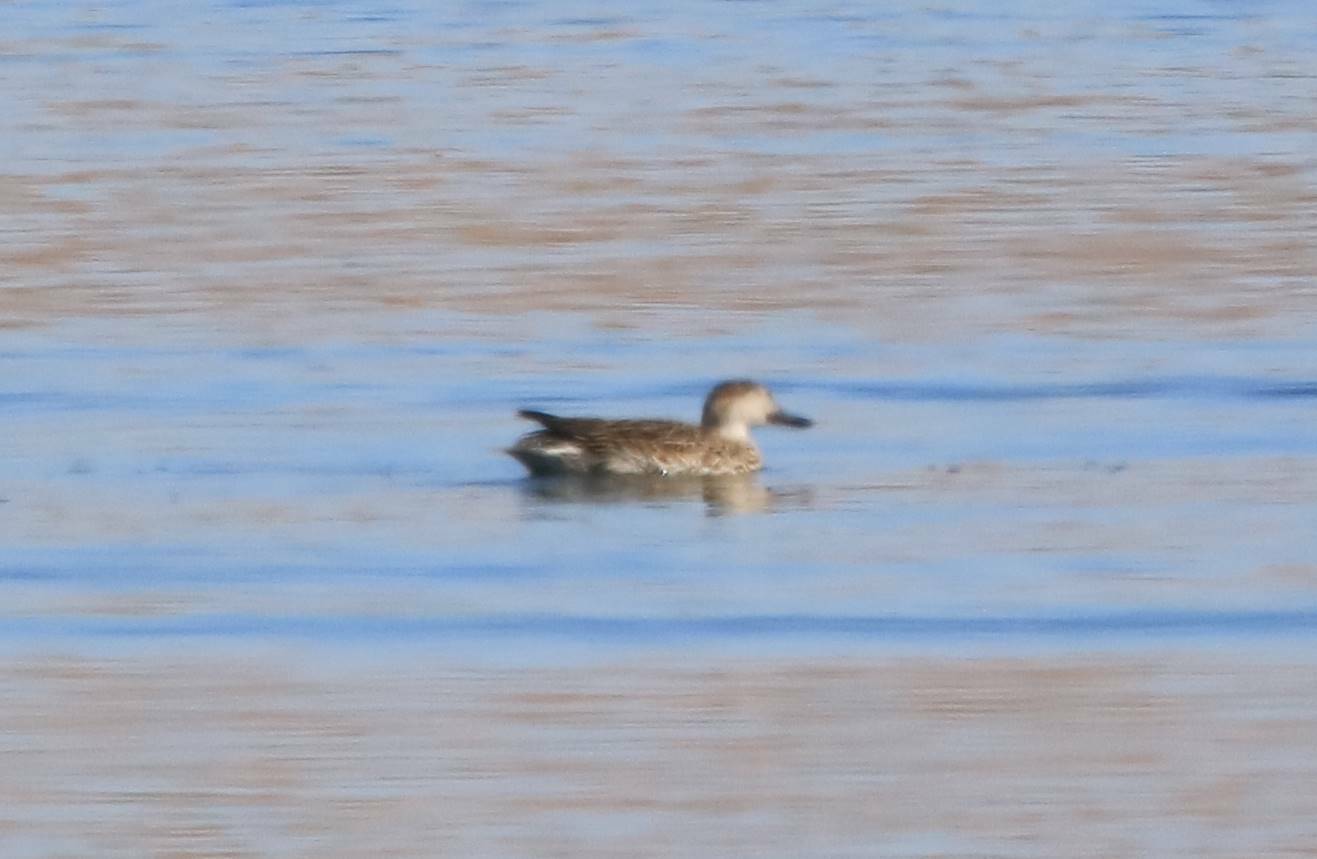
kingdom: Animalia
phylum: Chordata
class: Aves
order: Anseriformes
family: Anatidae
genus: Anas
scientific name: Anas crecca
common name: Eurasian teal
